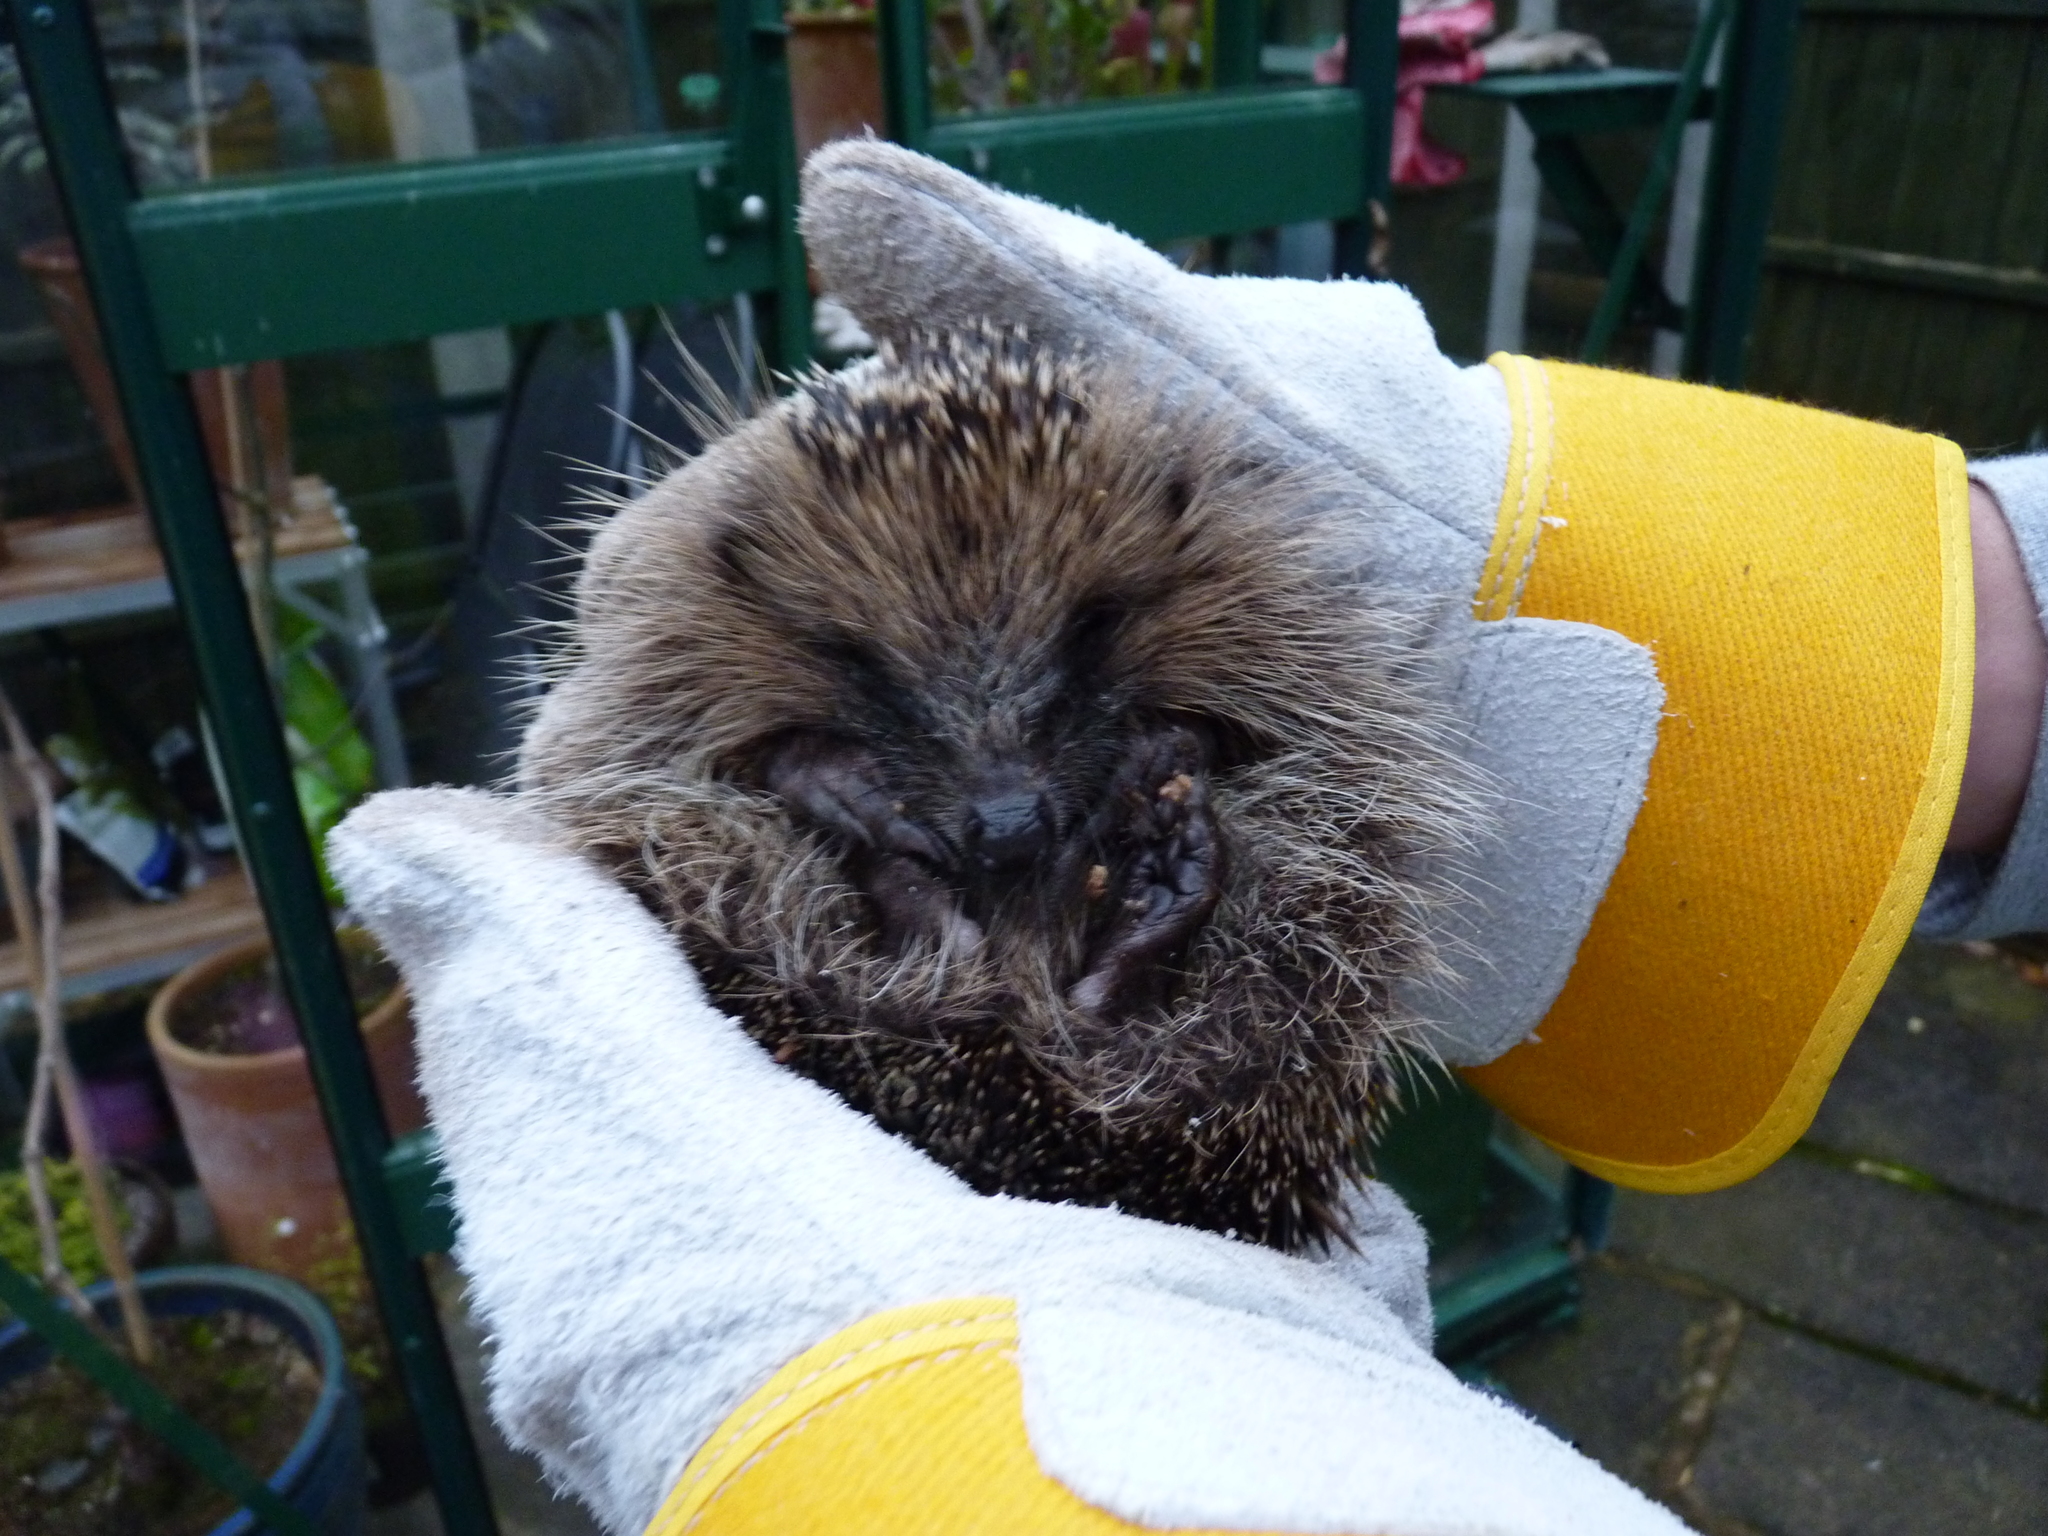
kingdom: Animalia
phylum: Chordata
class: Mammalia
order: Erinaceomorpha
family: Erinaceidae
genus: Erinaceus
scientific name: Erinaceus europaeus
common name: West european hedgehog
